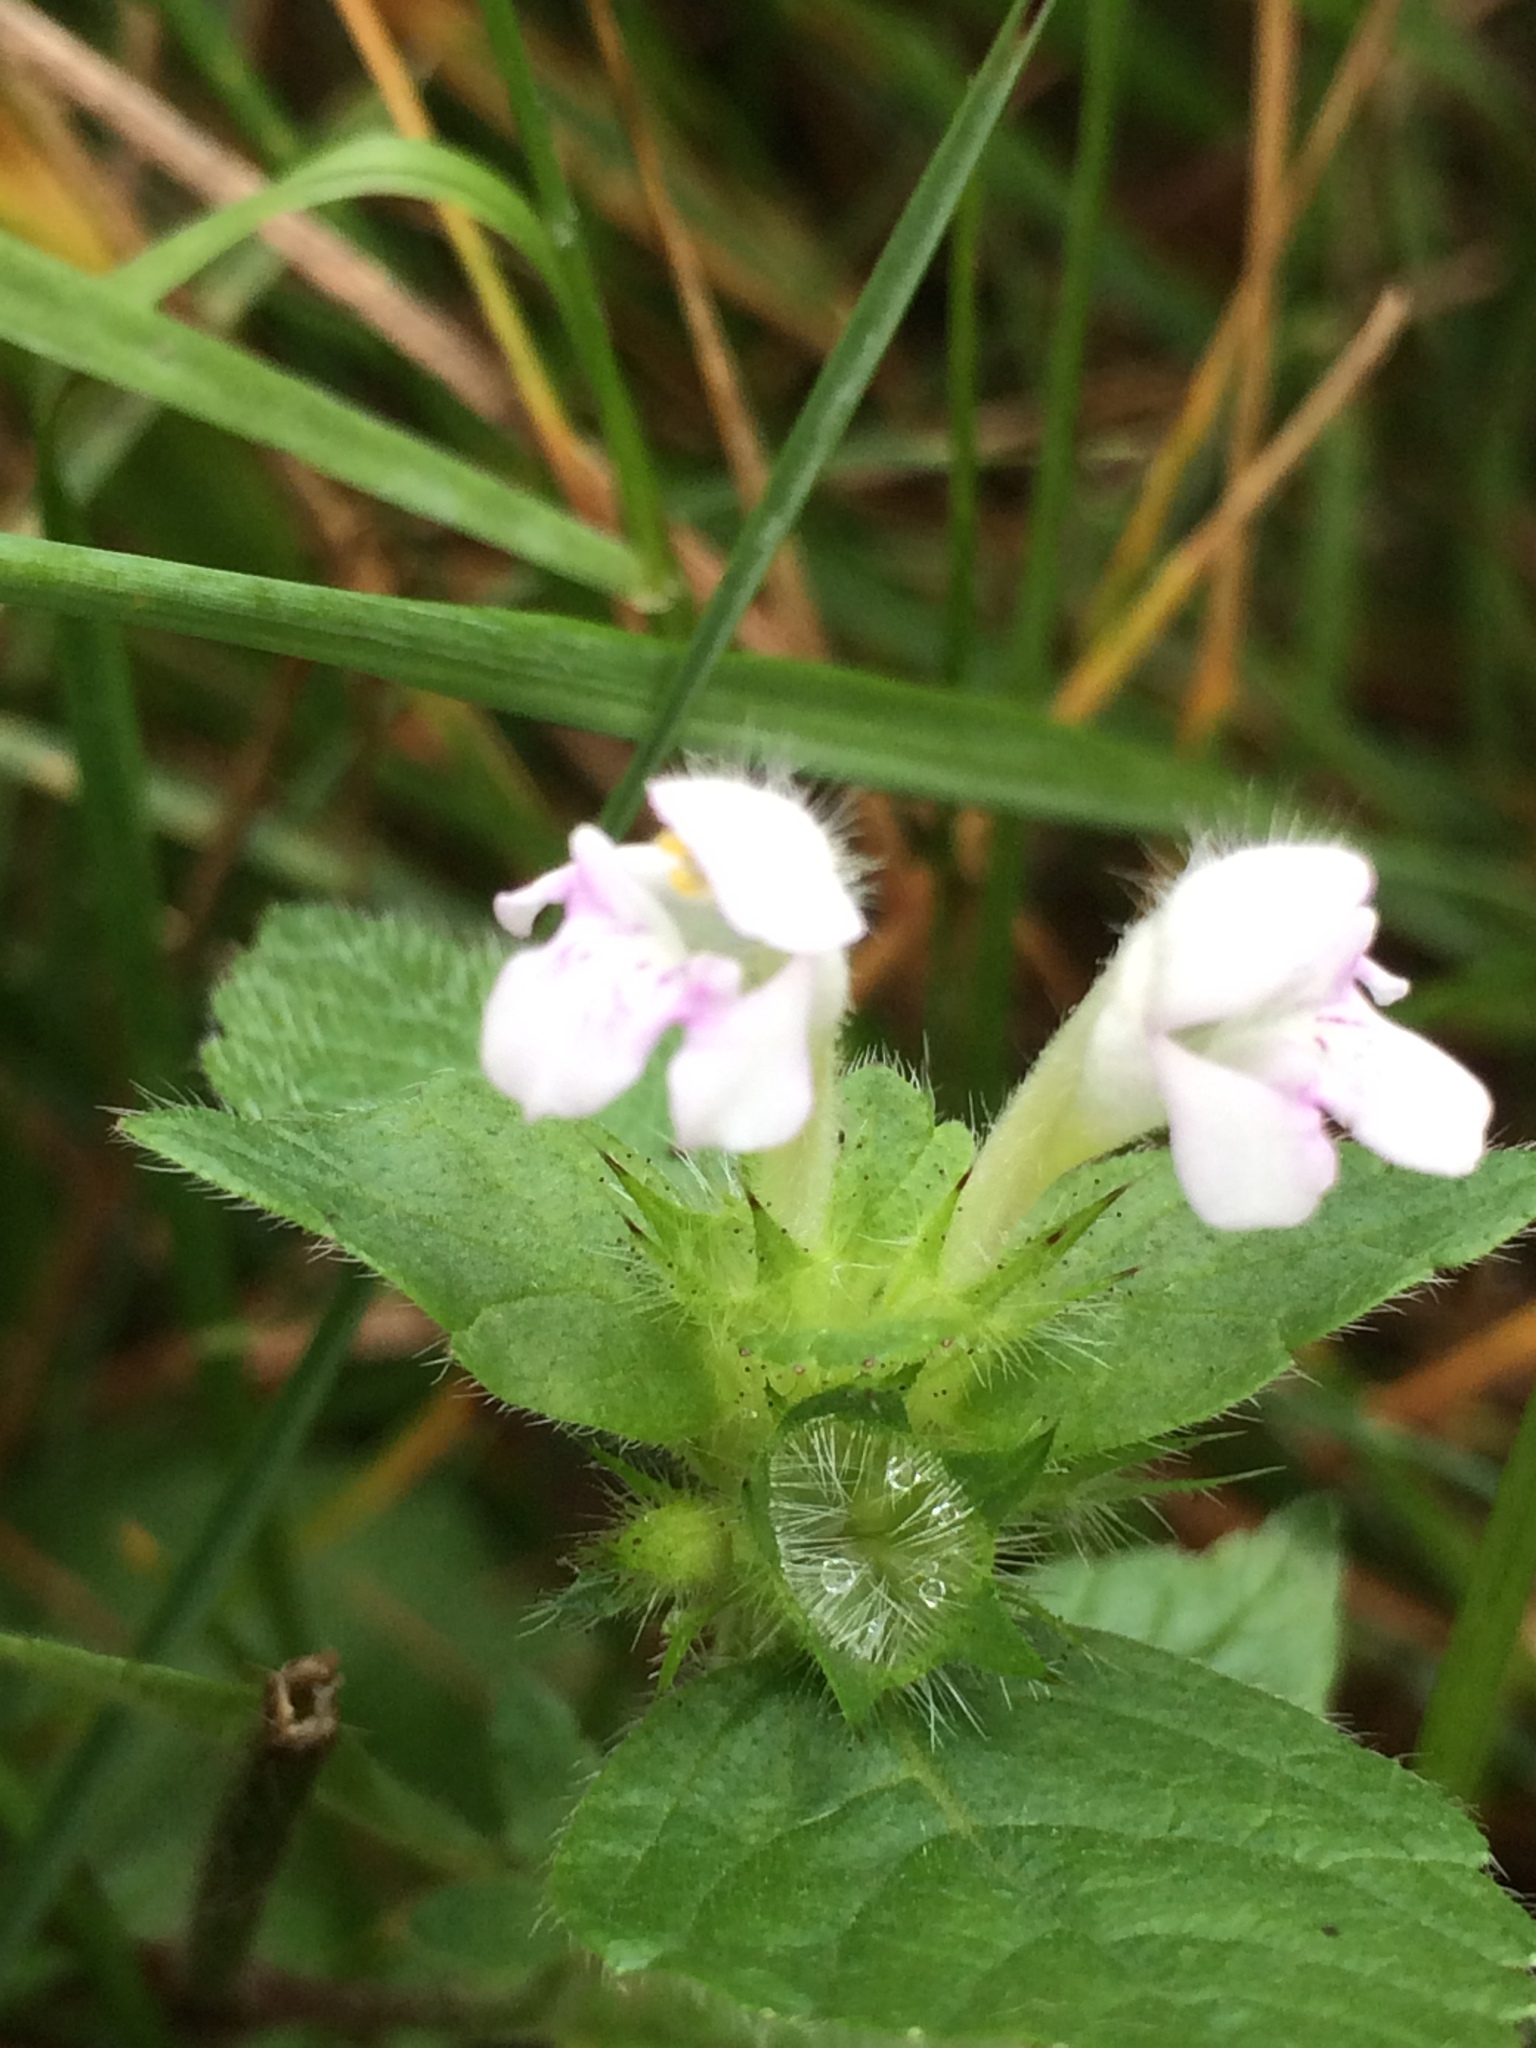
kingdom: Plantae
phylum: Tracheophyta
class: Magnoliopsida
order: Lamiales
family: Lamiaceae
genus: Galeopsis
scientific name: Galeopsis tetrahit
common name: Common hemp-nettle
